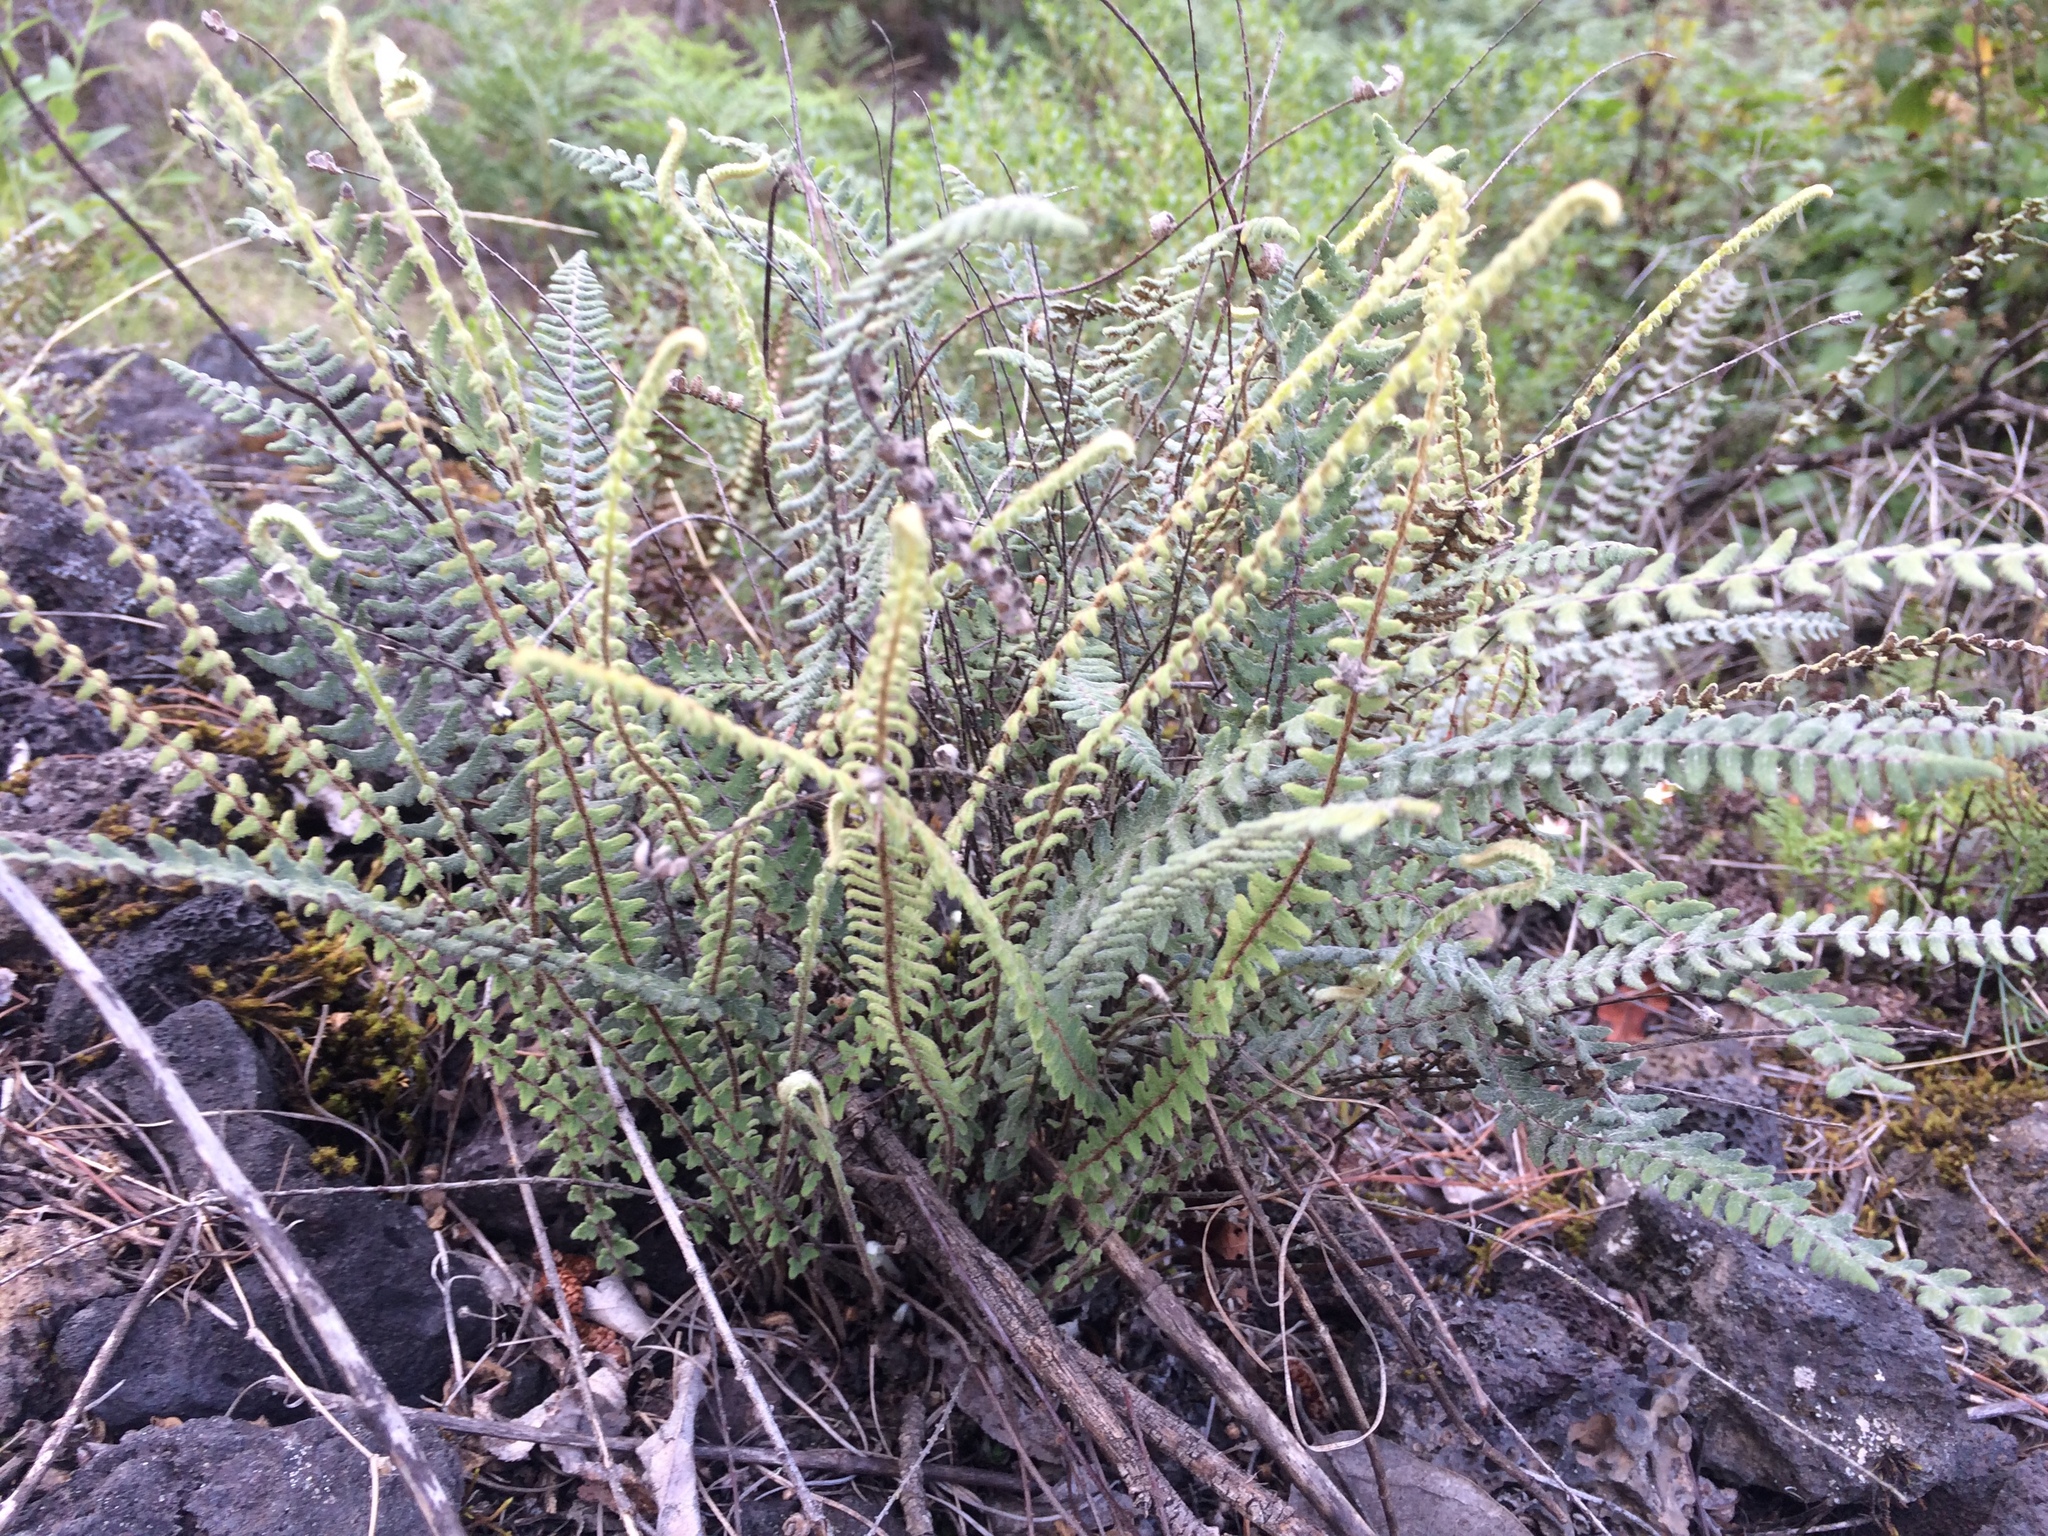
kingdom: Plantae
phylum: Tracheophyta
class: Polypodiopsida
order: Polypodiales
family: Pteridaceae
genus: Myriopteris
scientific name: Myriopteris aurea
